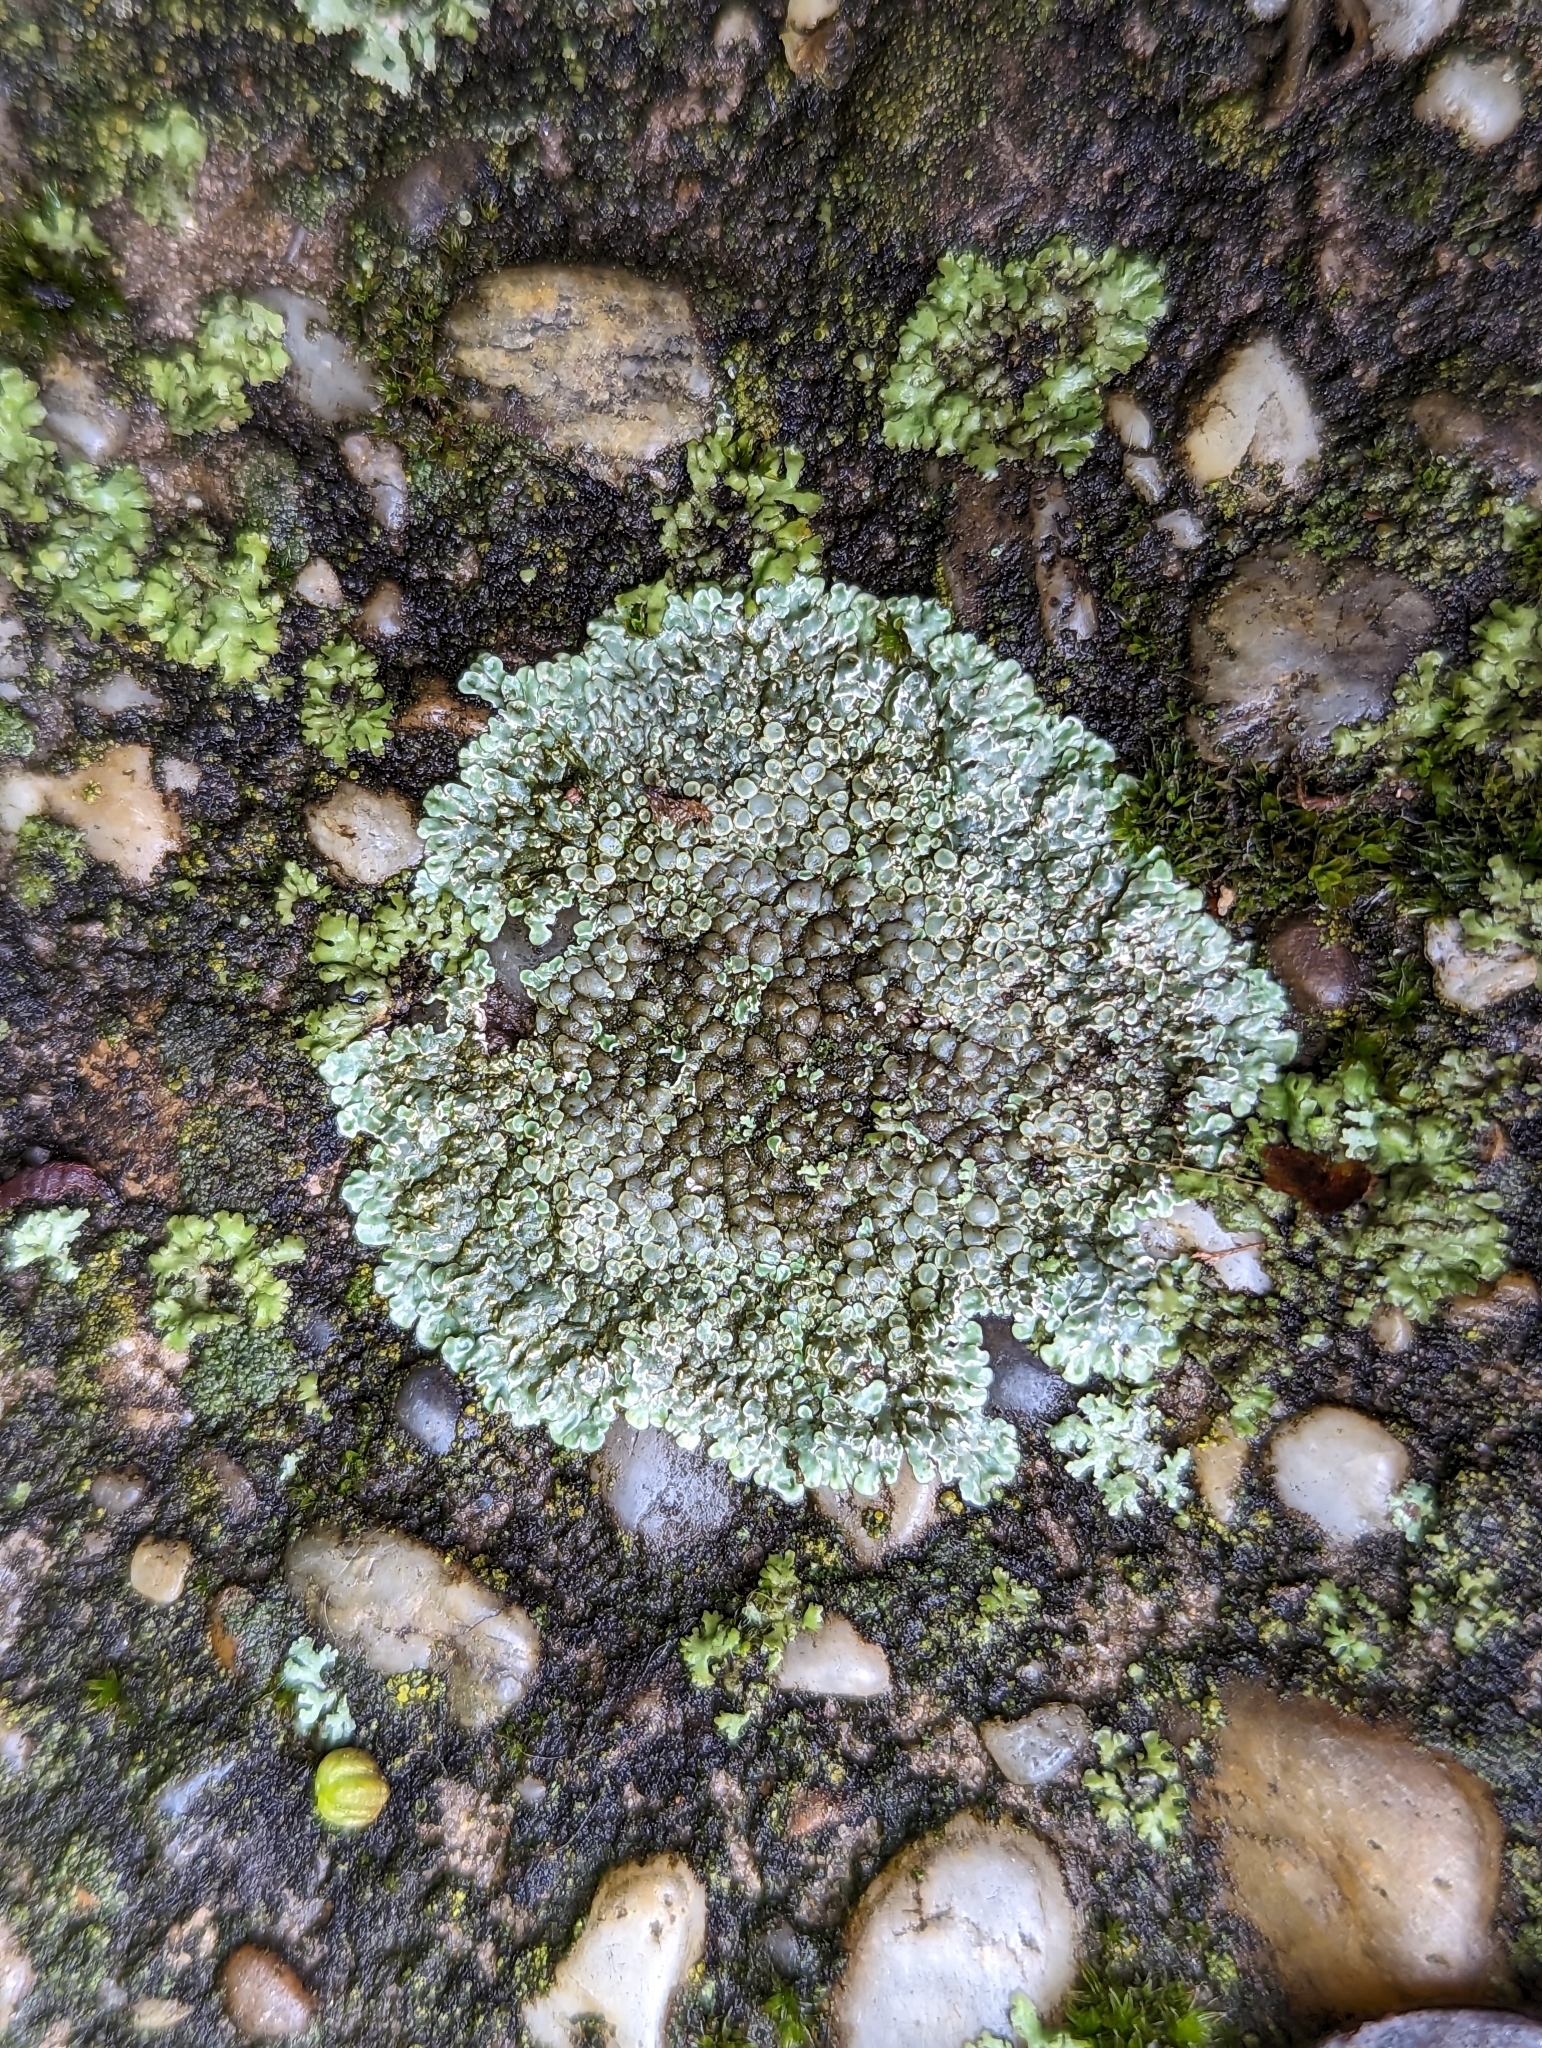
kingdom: Fungi
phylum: Ascomycota
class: Lecanoromycetes
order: Lecanorales
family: Lecanoraceae
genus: Protoparmeliopsis
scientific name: Protoparmeliopsis muralis
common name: Stonewall rim lichen
